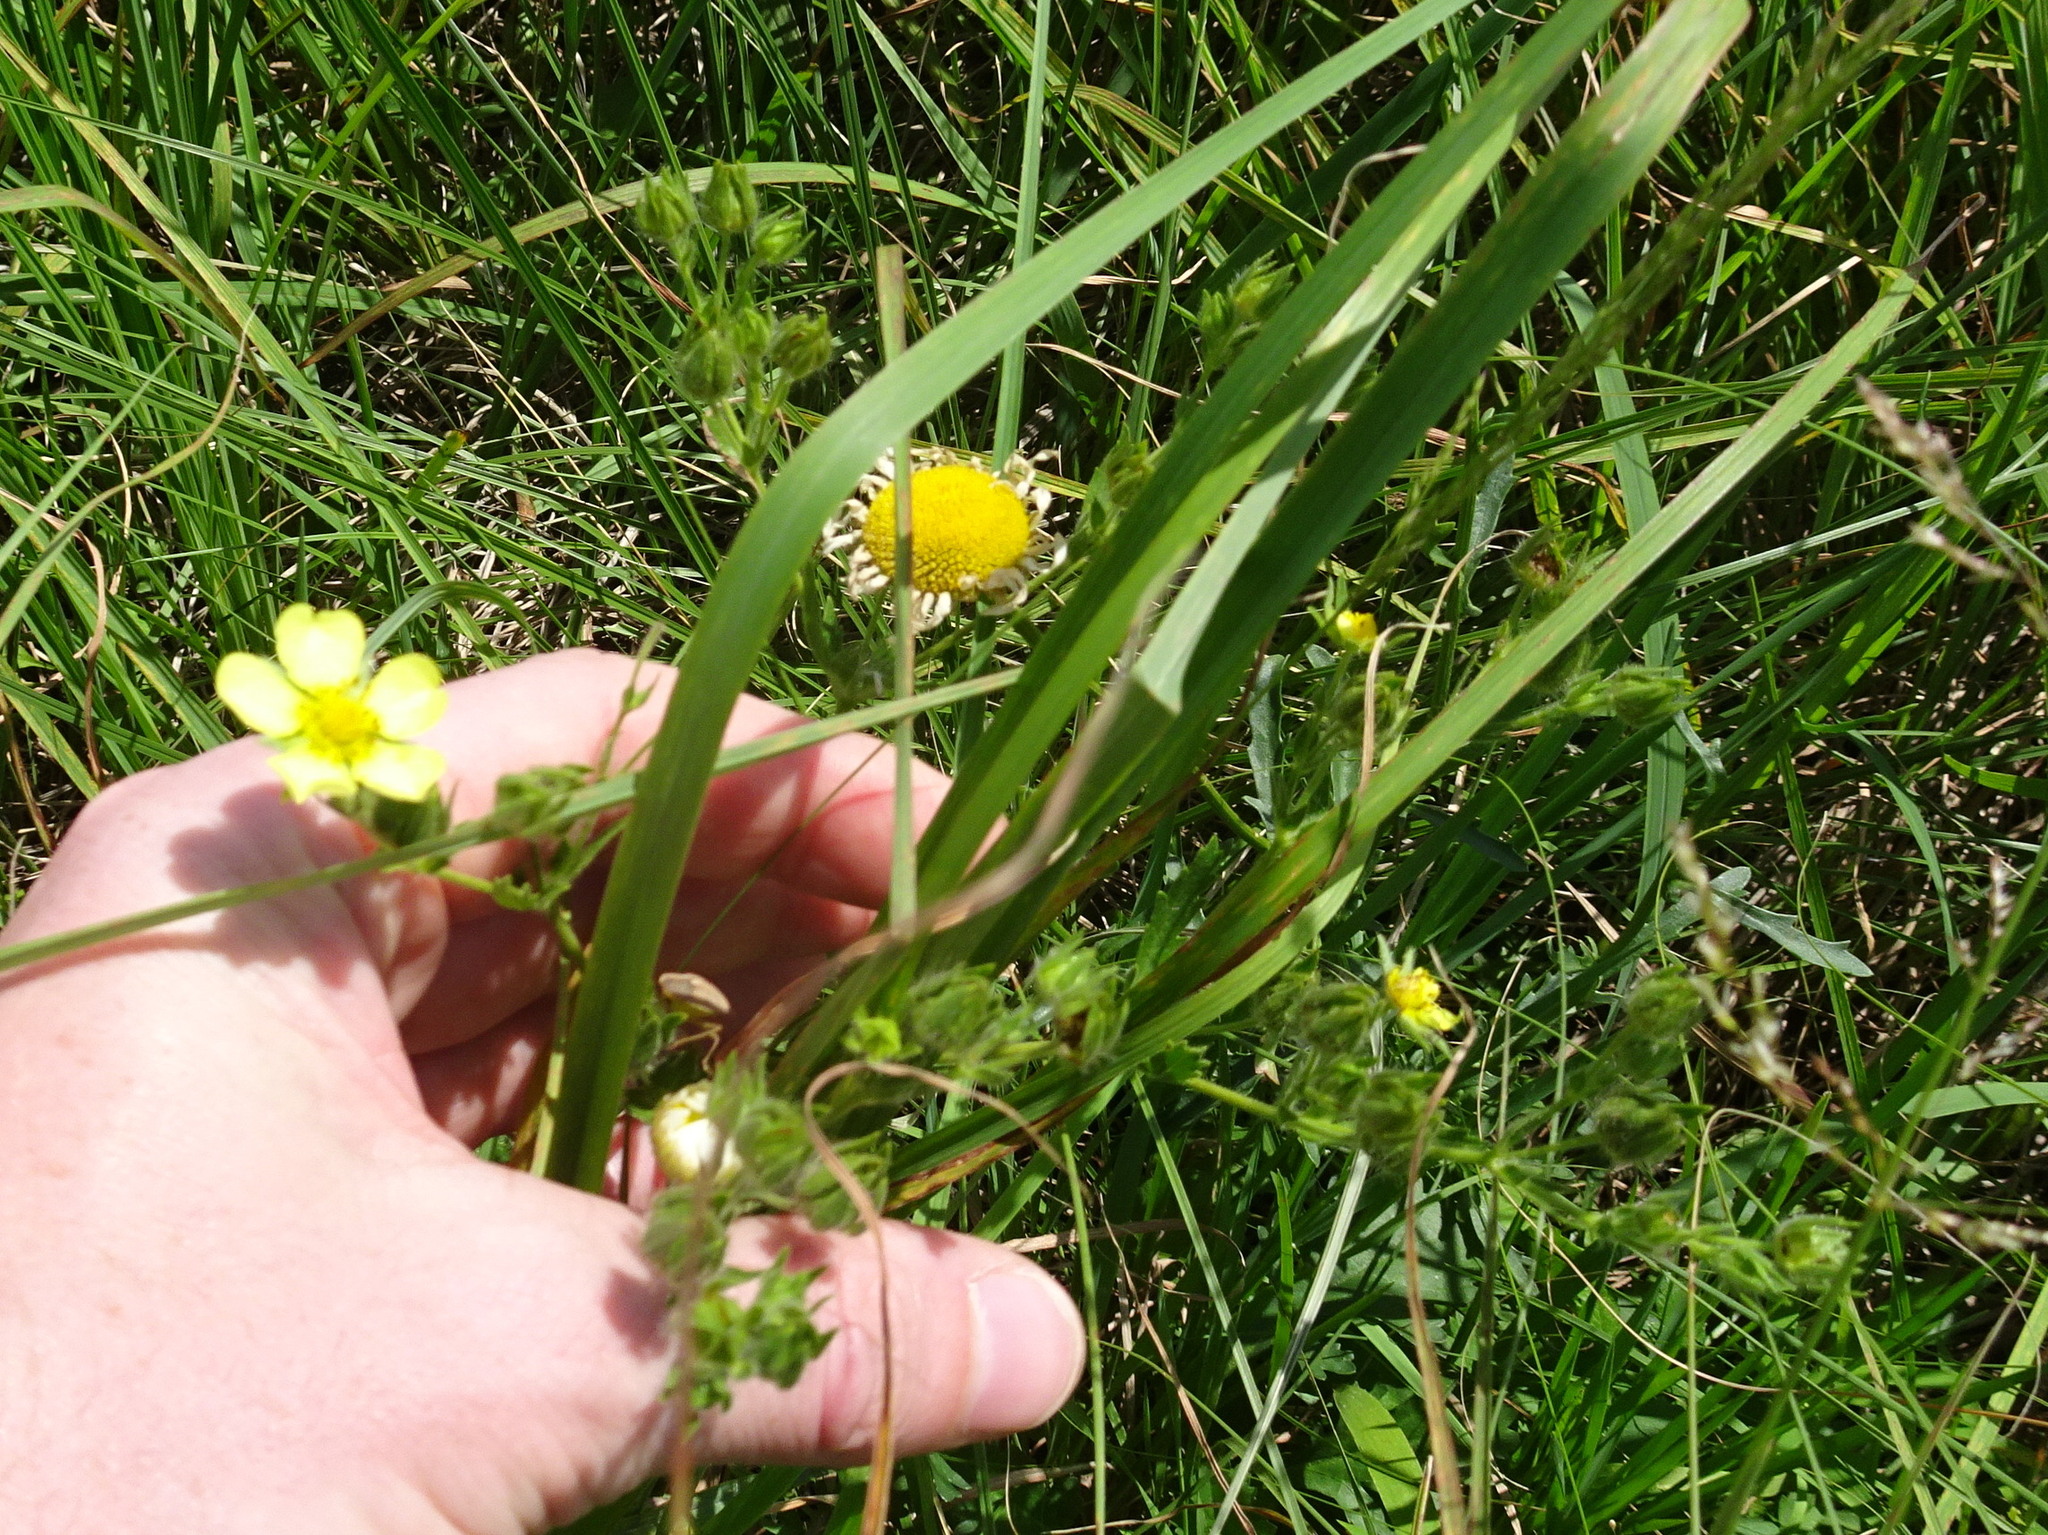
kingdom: Plantae
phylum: Tracheophyta
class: Magnoliopsida
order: Rosales
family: Rosaceae
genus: Potentilla
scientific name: Potentilla recta
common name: Sulphur cinquefoil
